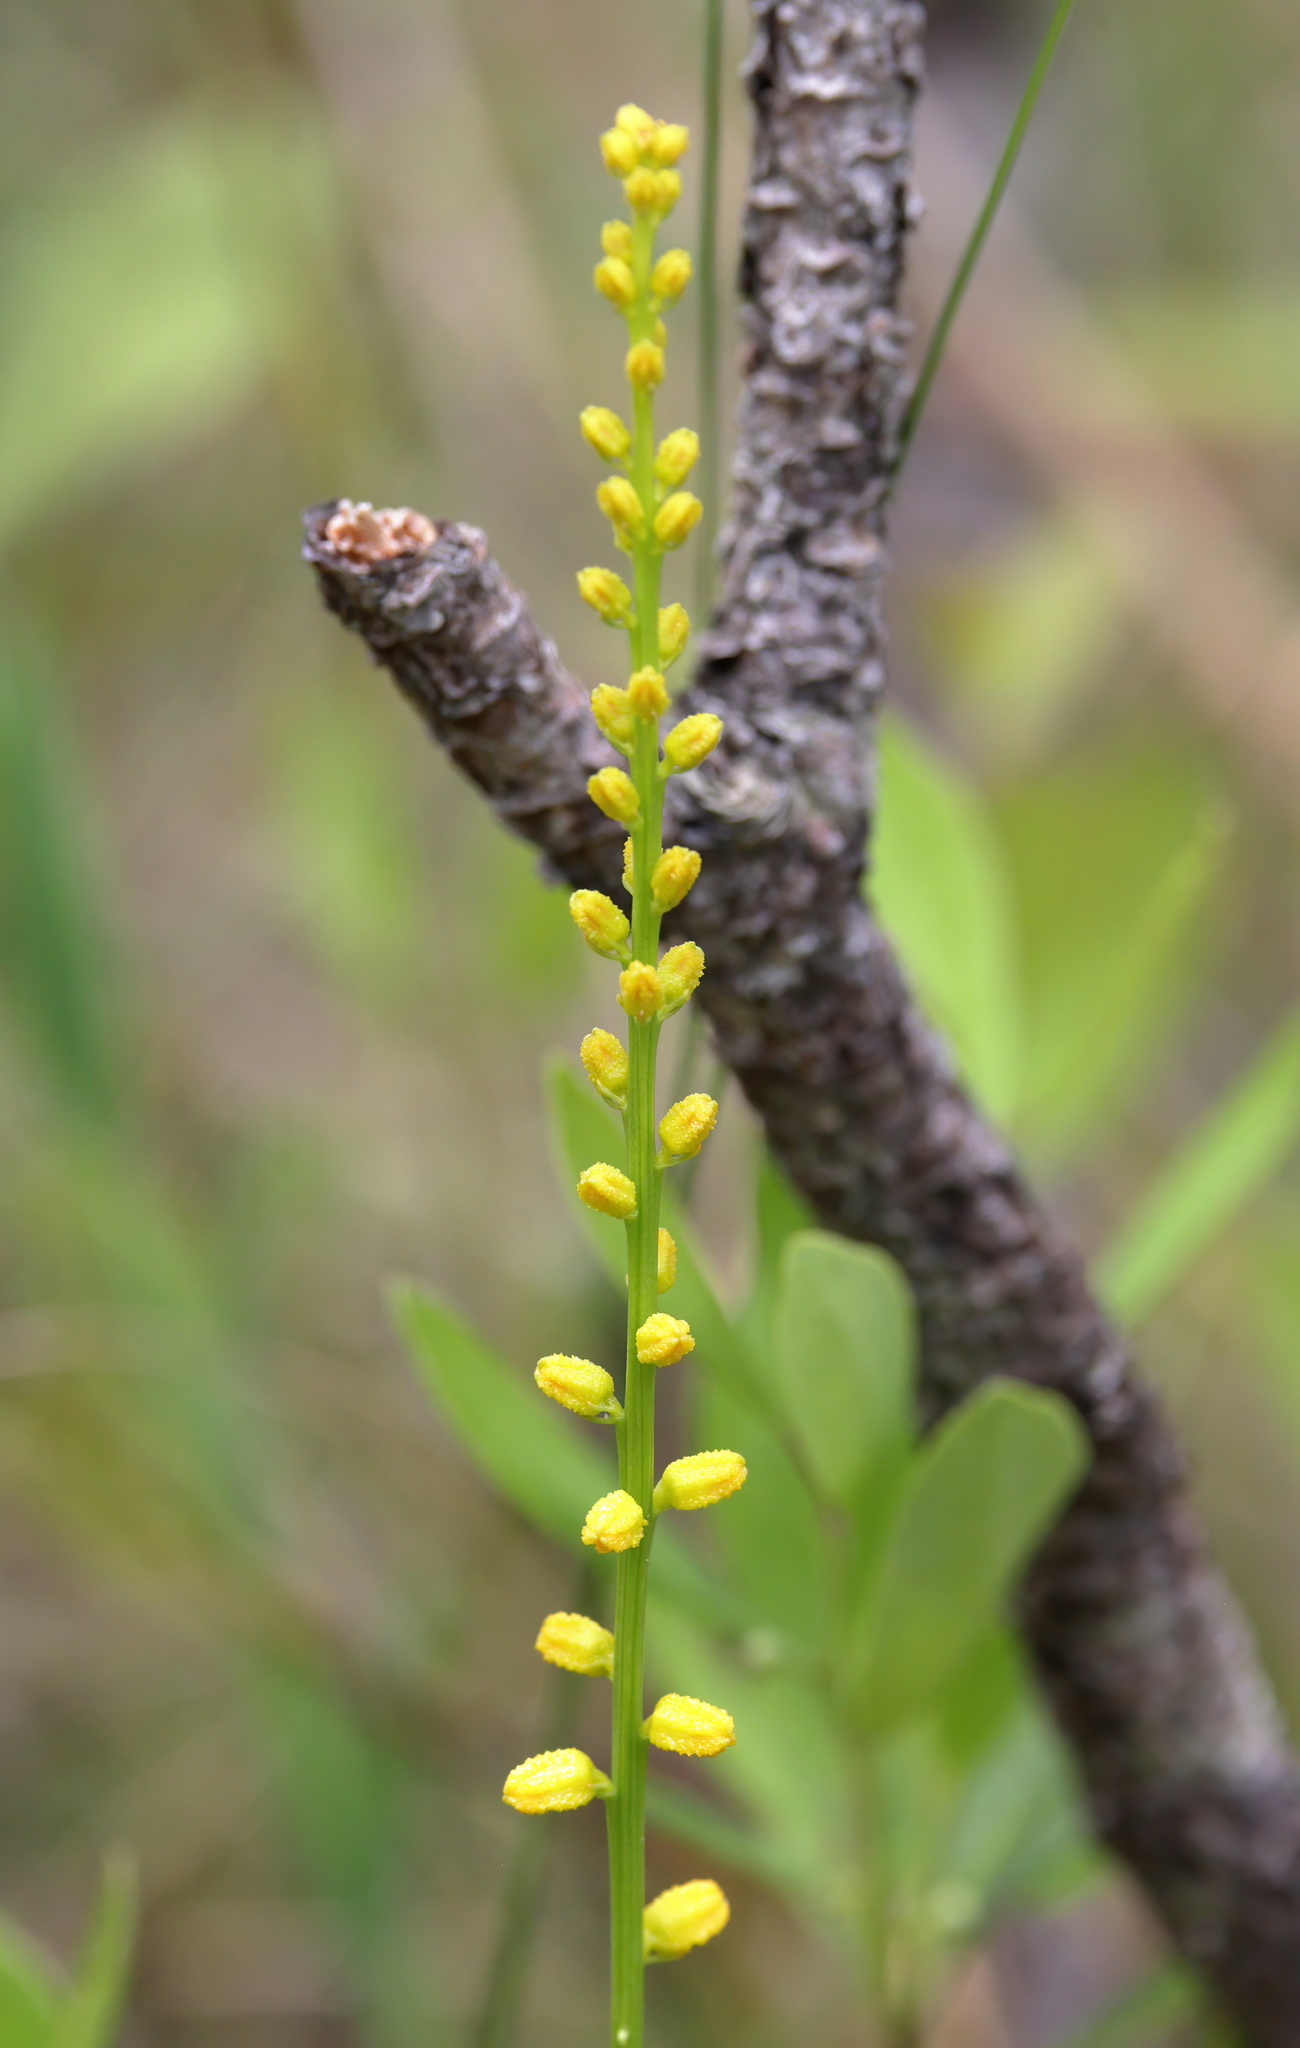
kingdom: Plantae
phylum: Tracheophyta
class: Liliopsida
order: Dioscoreales
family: Nartheciaceae
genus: Aletris
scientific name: Aletris aurea
